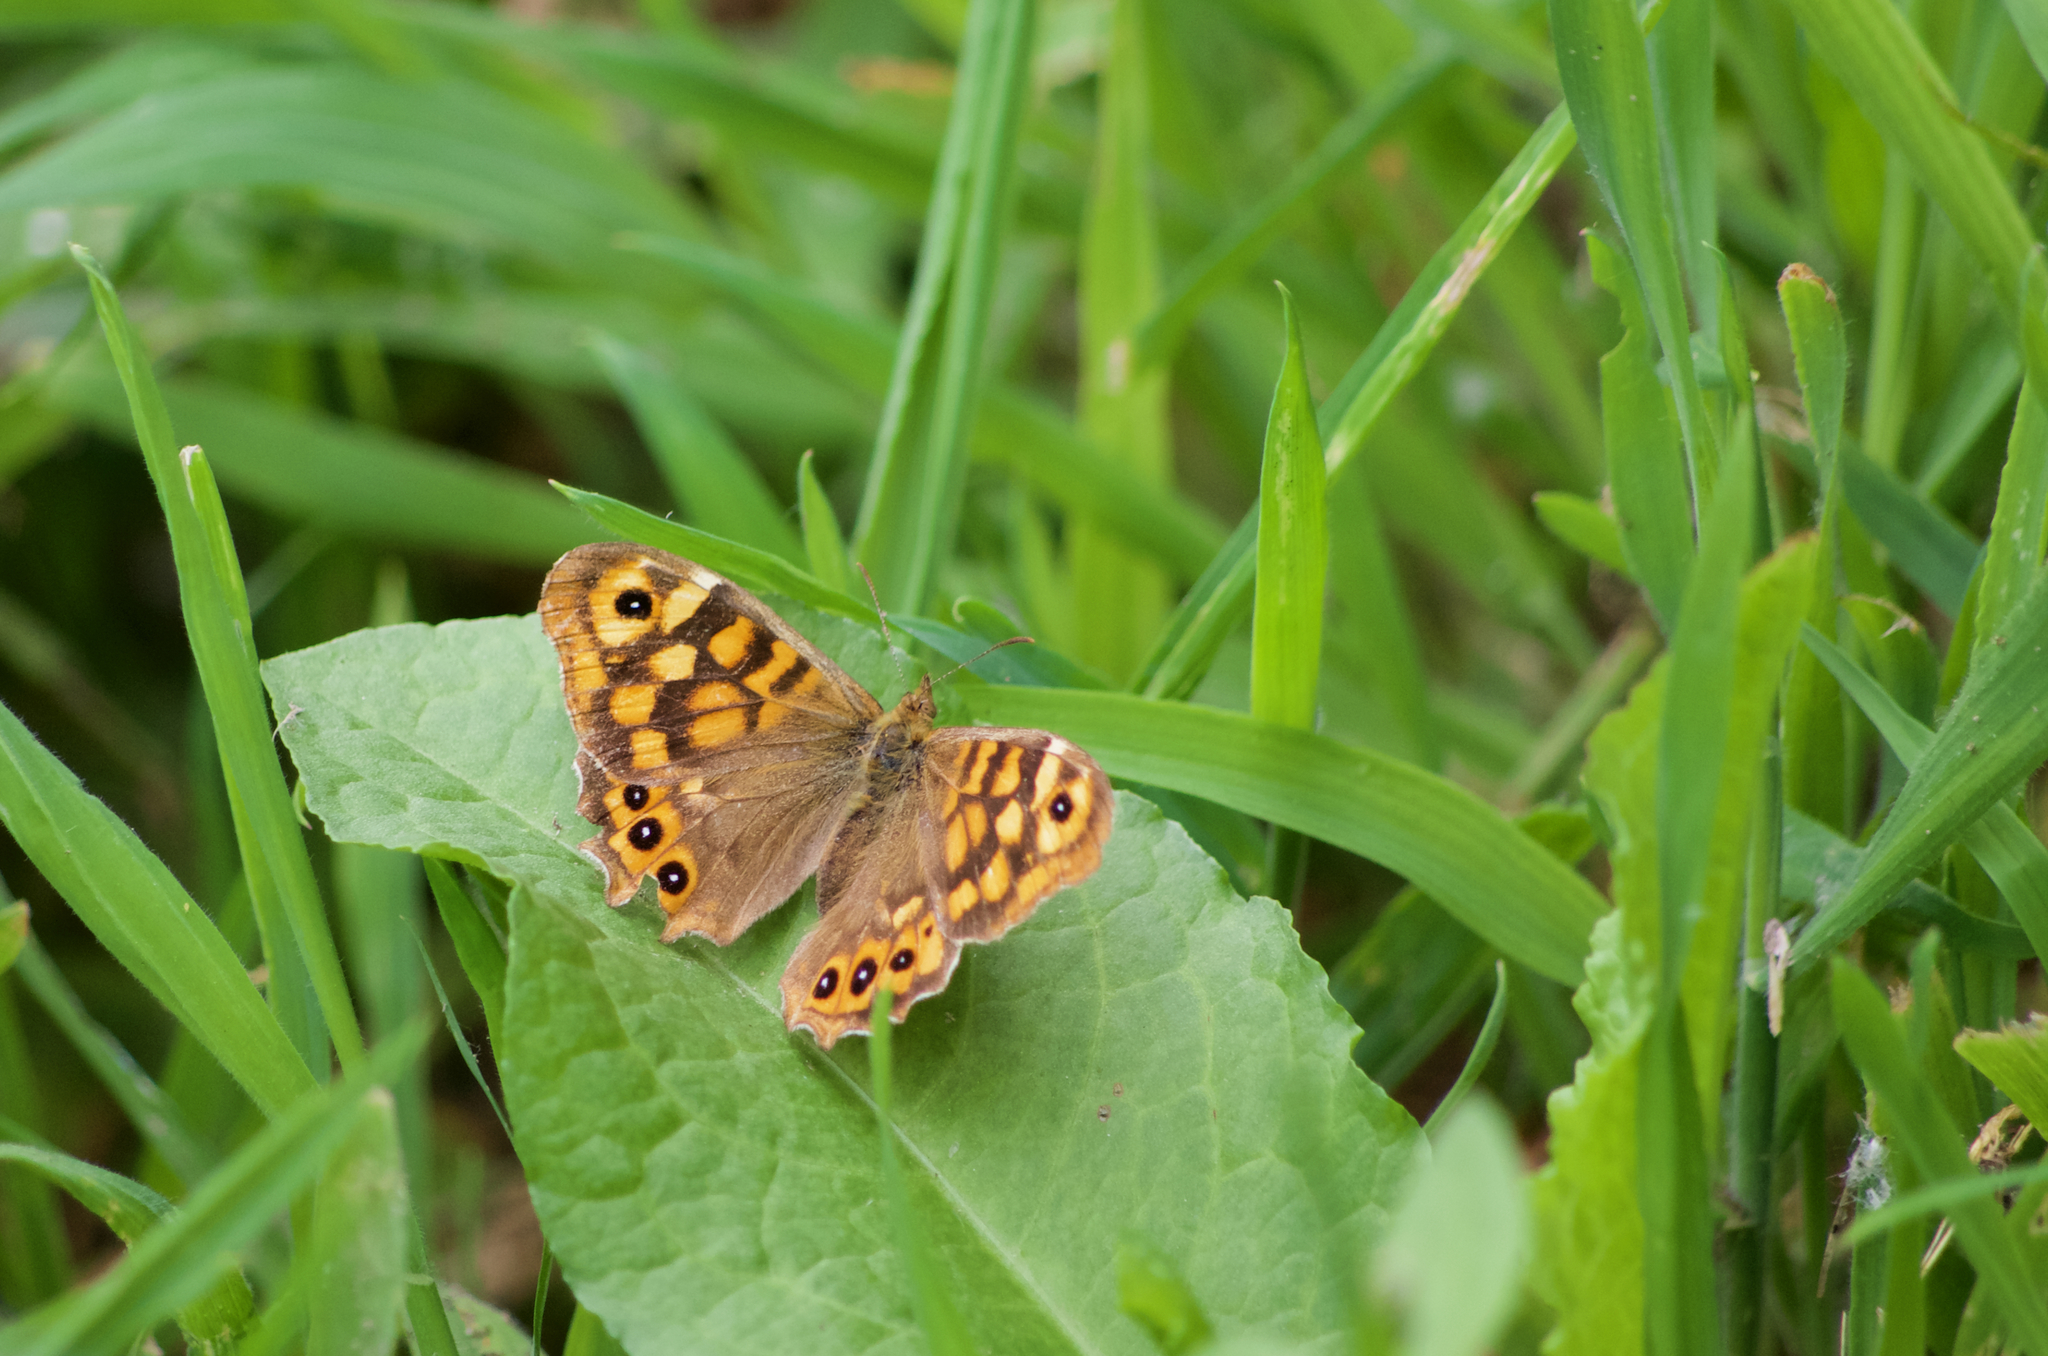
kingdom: Animalia
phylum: Arthropoda
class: Insecta
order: Lepidoptera
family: Nymphalidae
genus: Pararge
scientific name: Pararge aegeria
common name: Speckled wood
